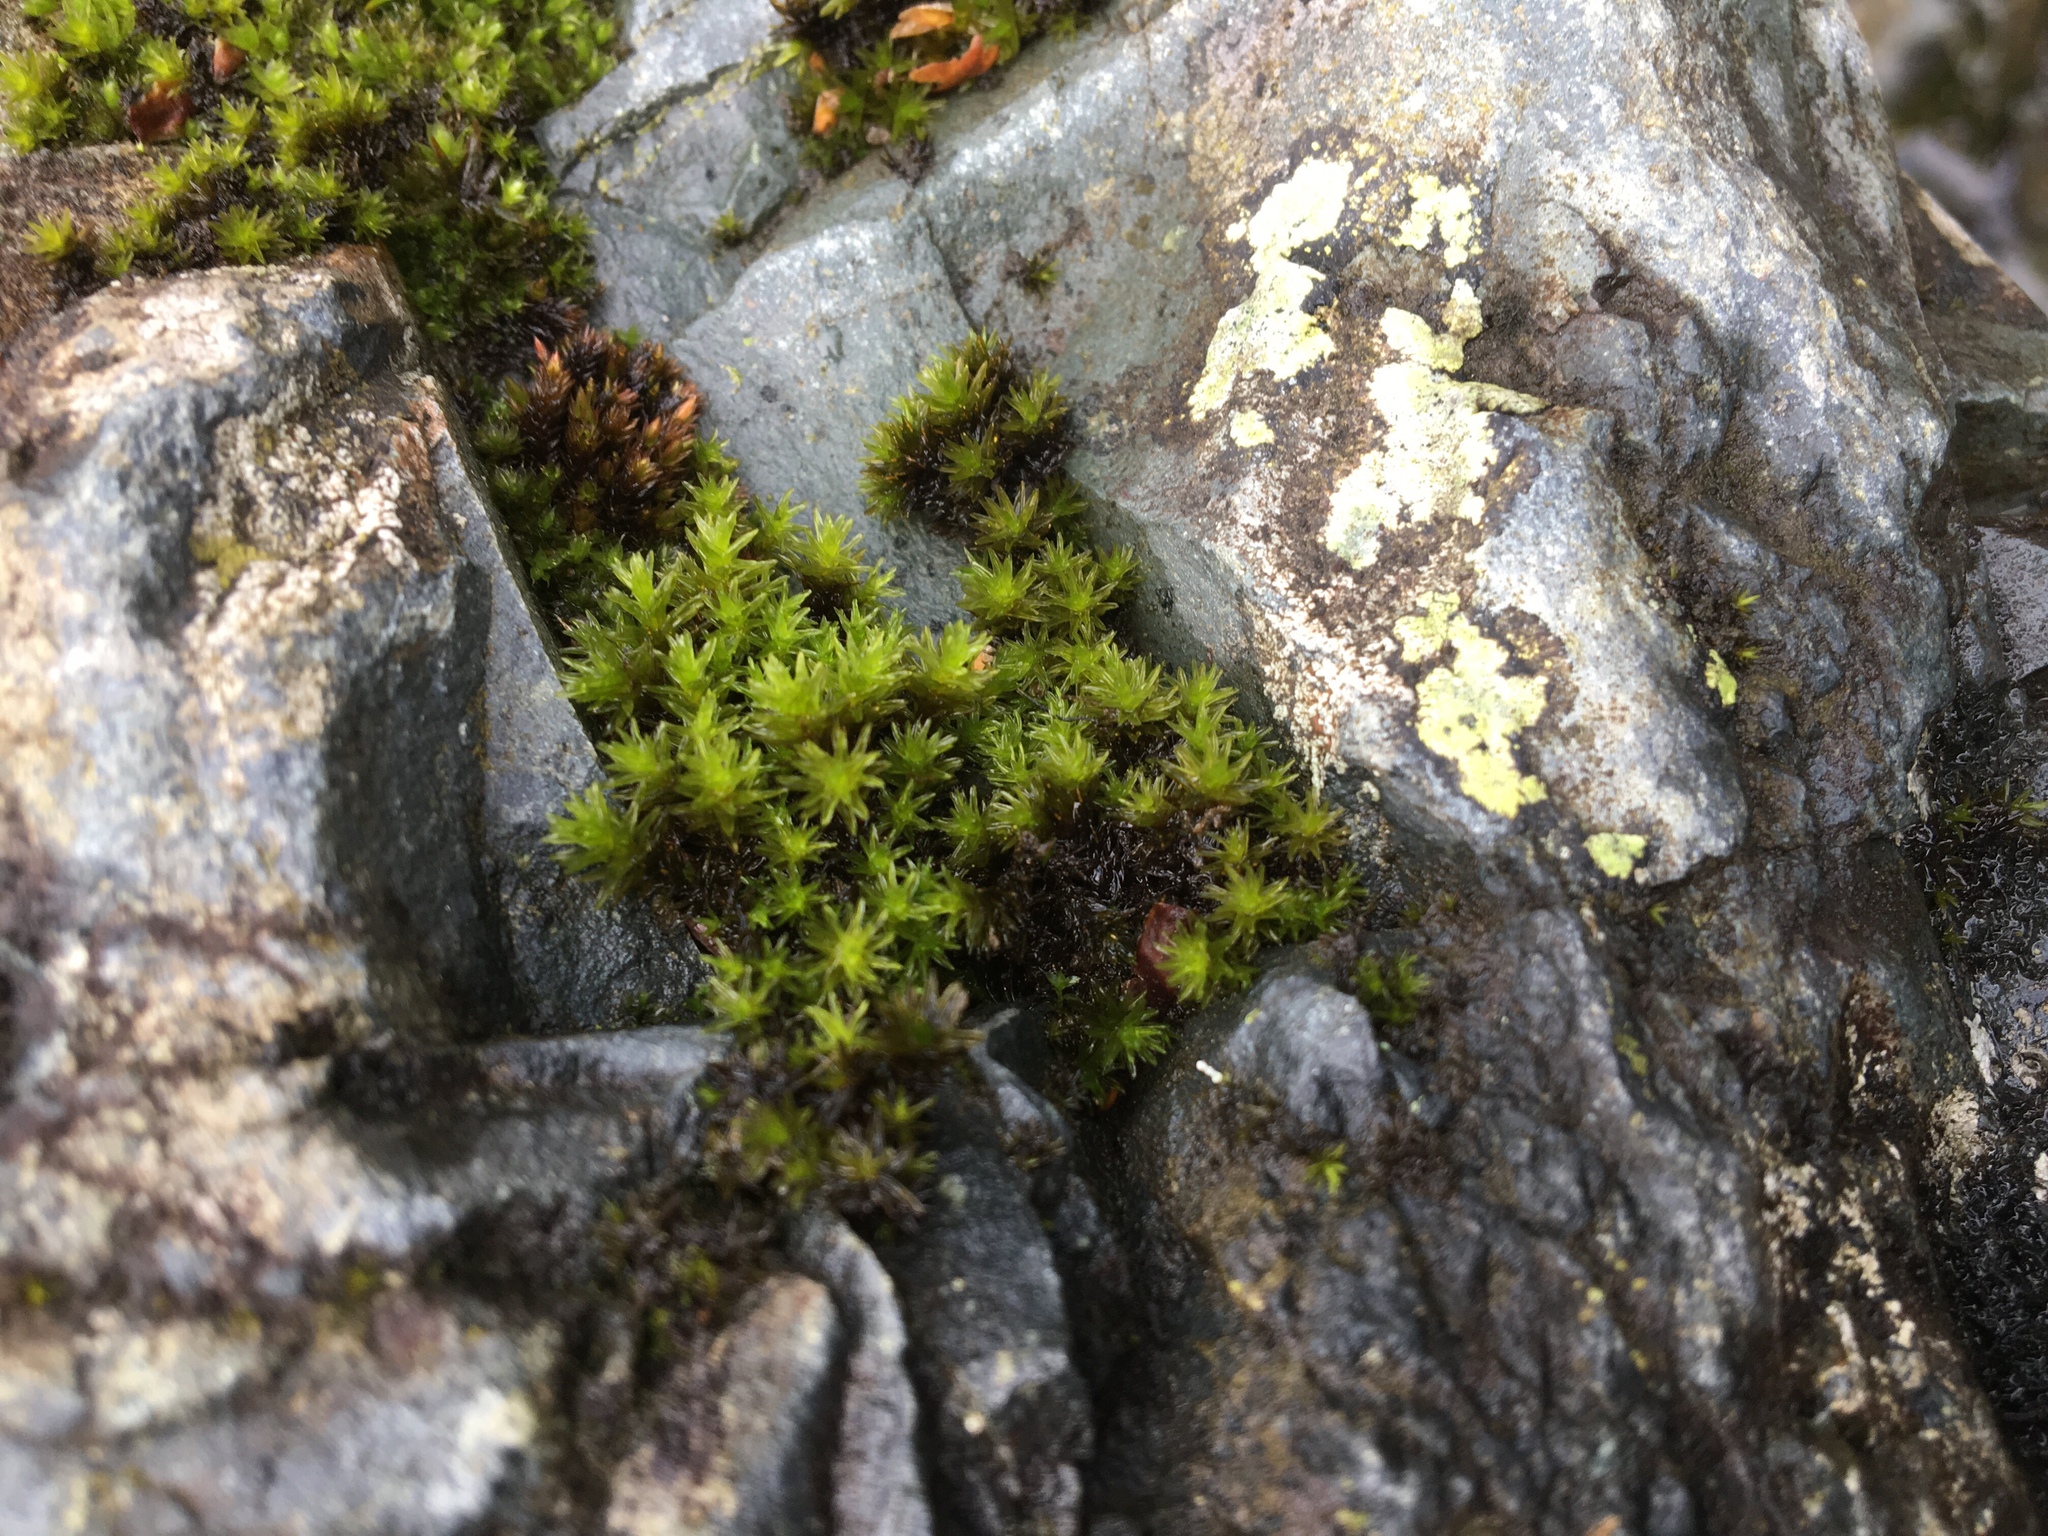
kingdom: Plantae
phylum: Bryophyta
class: Bryopsida
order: Grimmiales
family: Grimmiaceae
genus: Codriophorus
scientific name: Codriophorus acicularis
